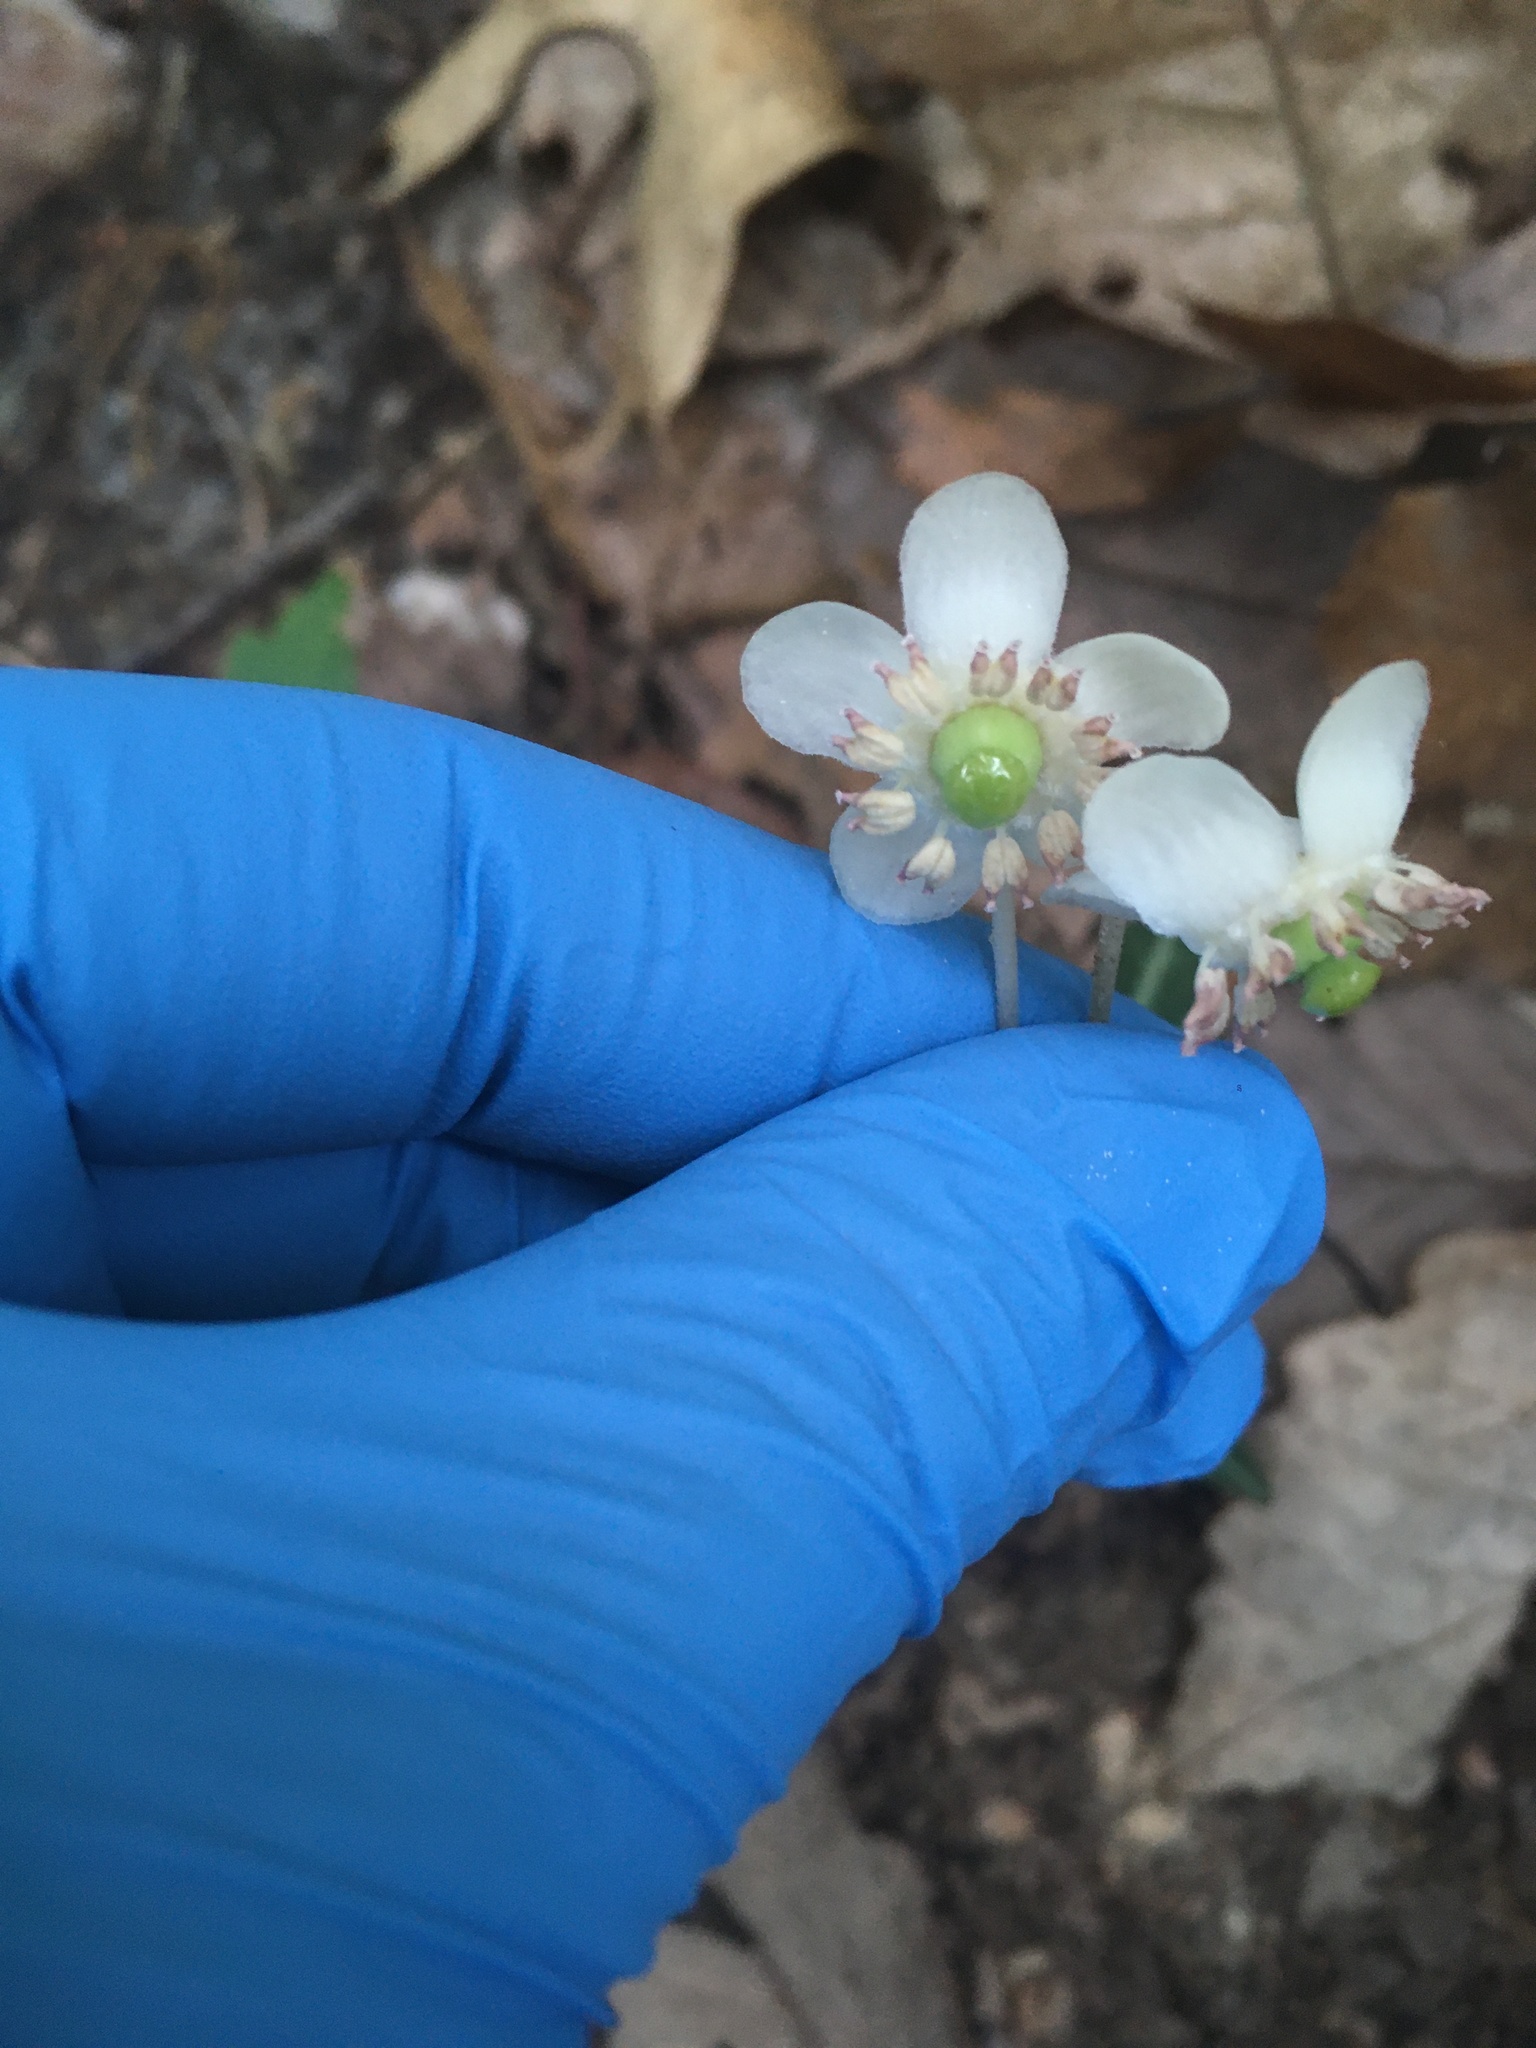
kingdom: Plantae
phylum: Tracheophyta
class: Magnoliopsida
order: Ericales
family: Ericaceae
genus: Chimaphila
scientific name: Chimaphila maculata
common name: Spotted pipsissewa
